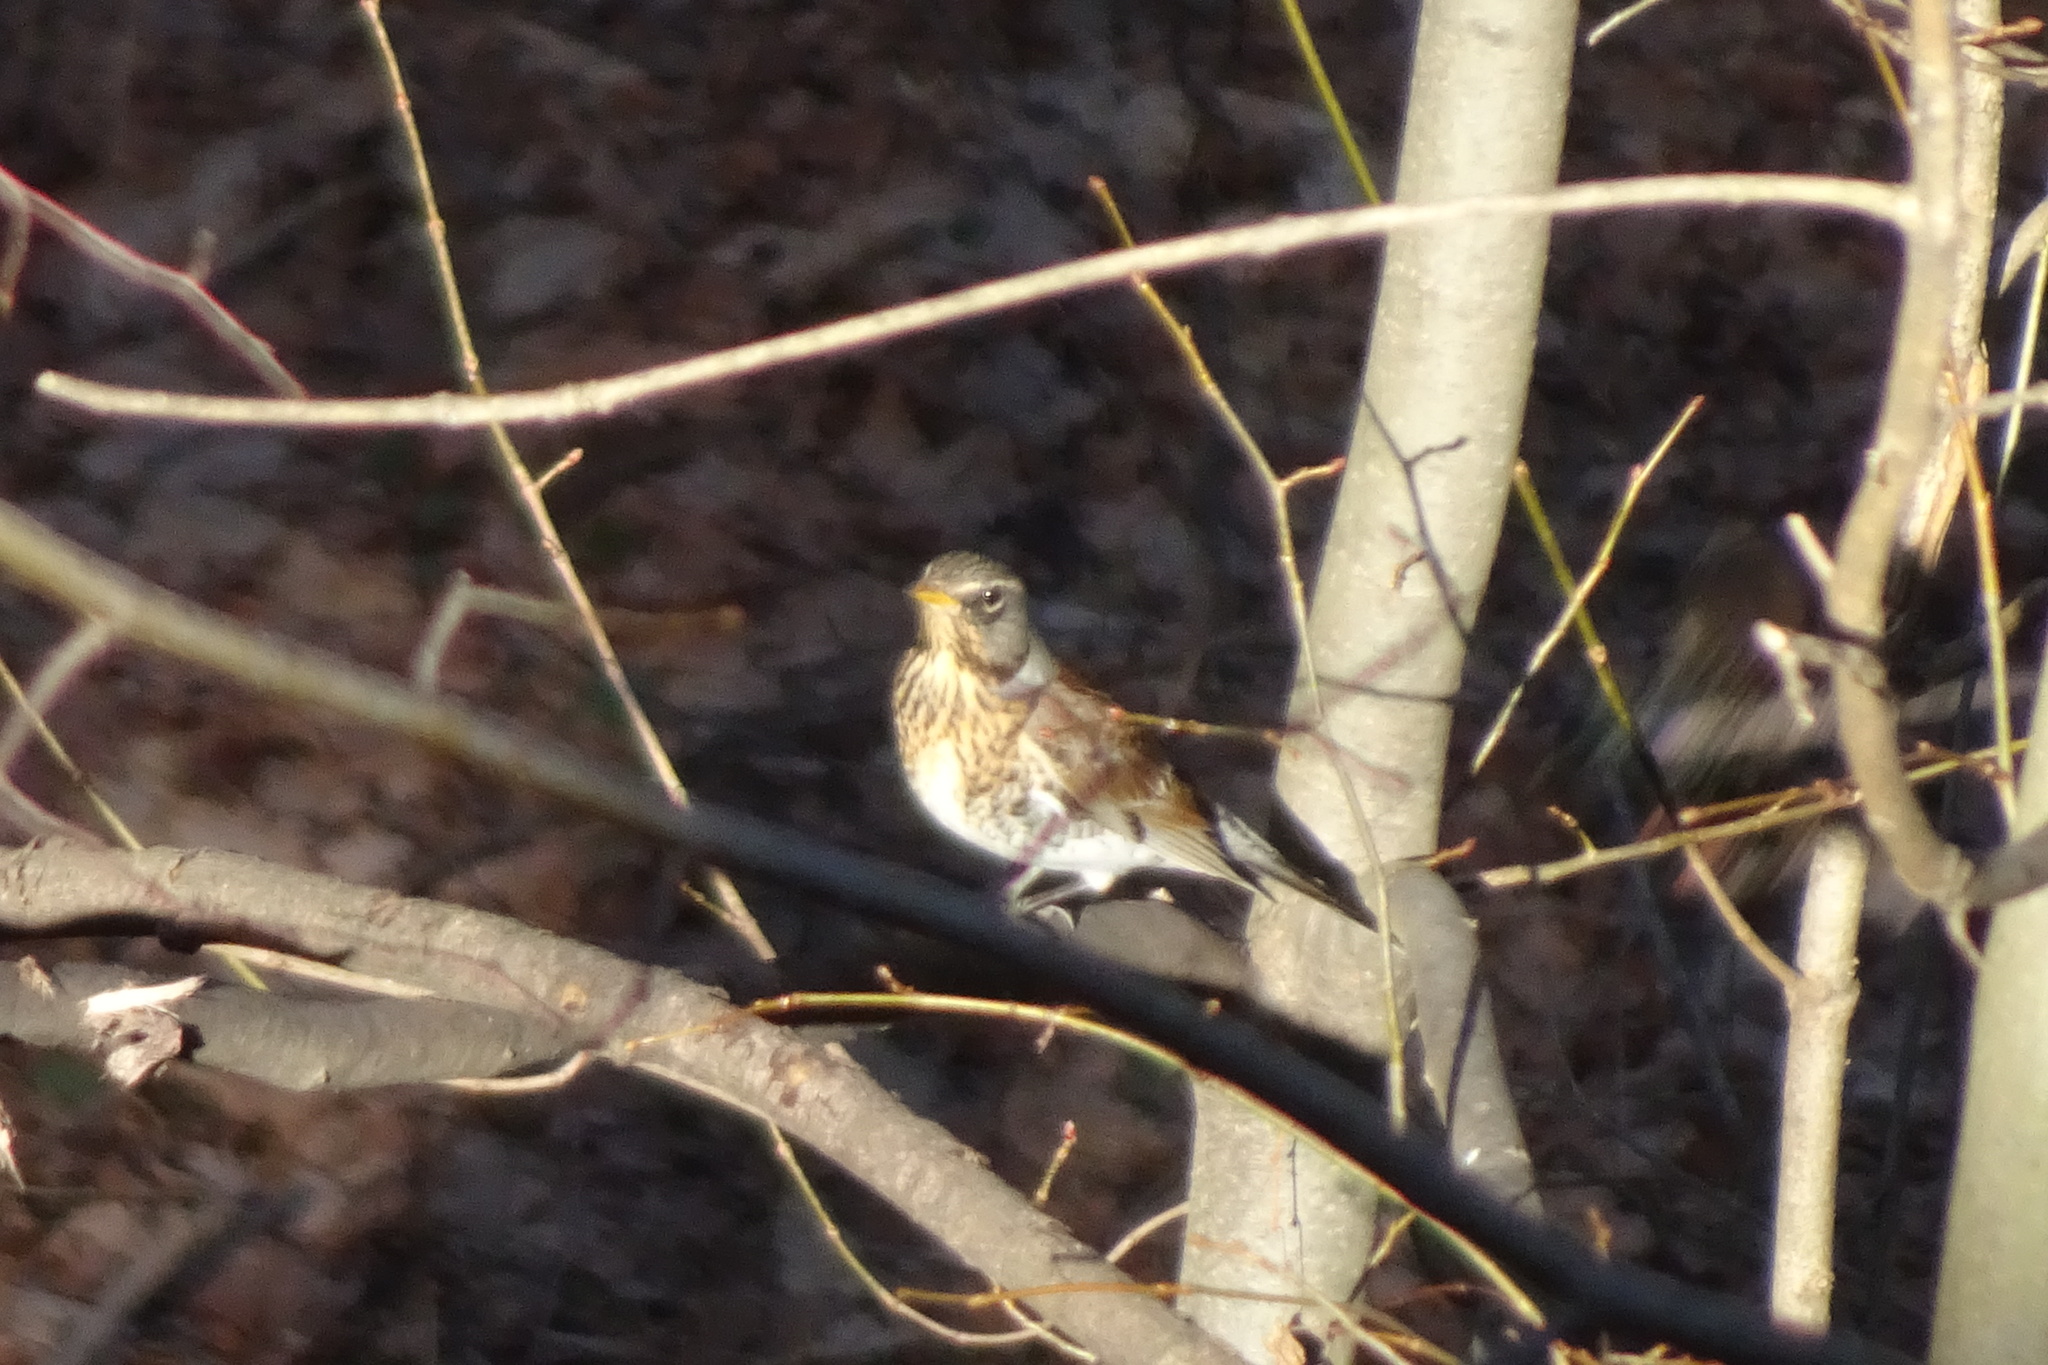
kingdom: Animalia
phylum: Chordata
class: Aves
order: Passeriformes
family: Turdidae
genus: Turdus
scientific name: Turdus pilaris
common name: Fieldfare
